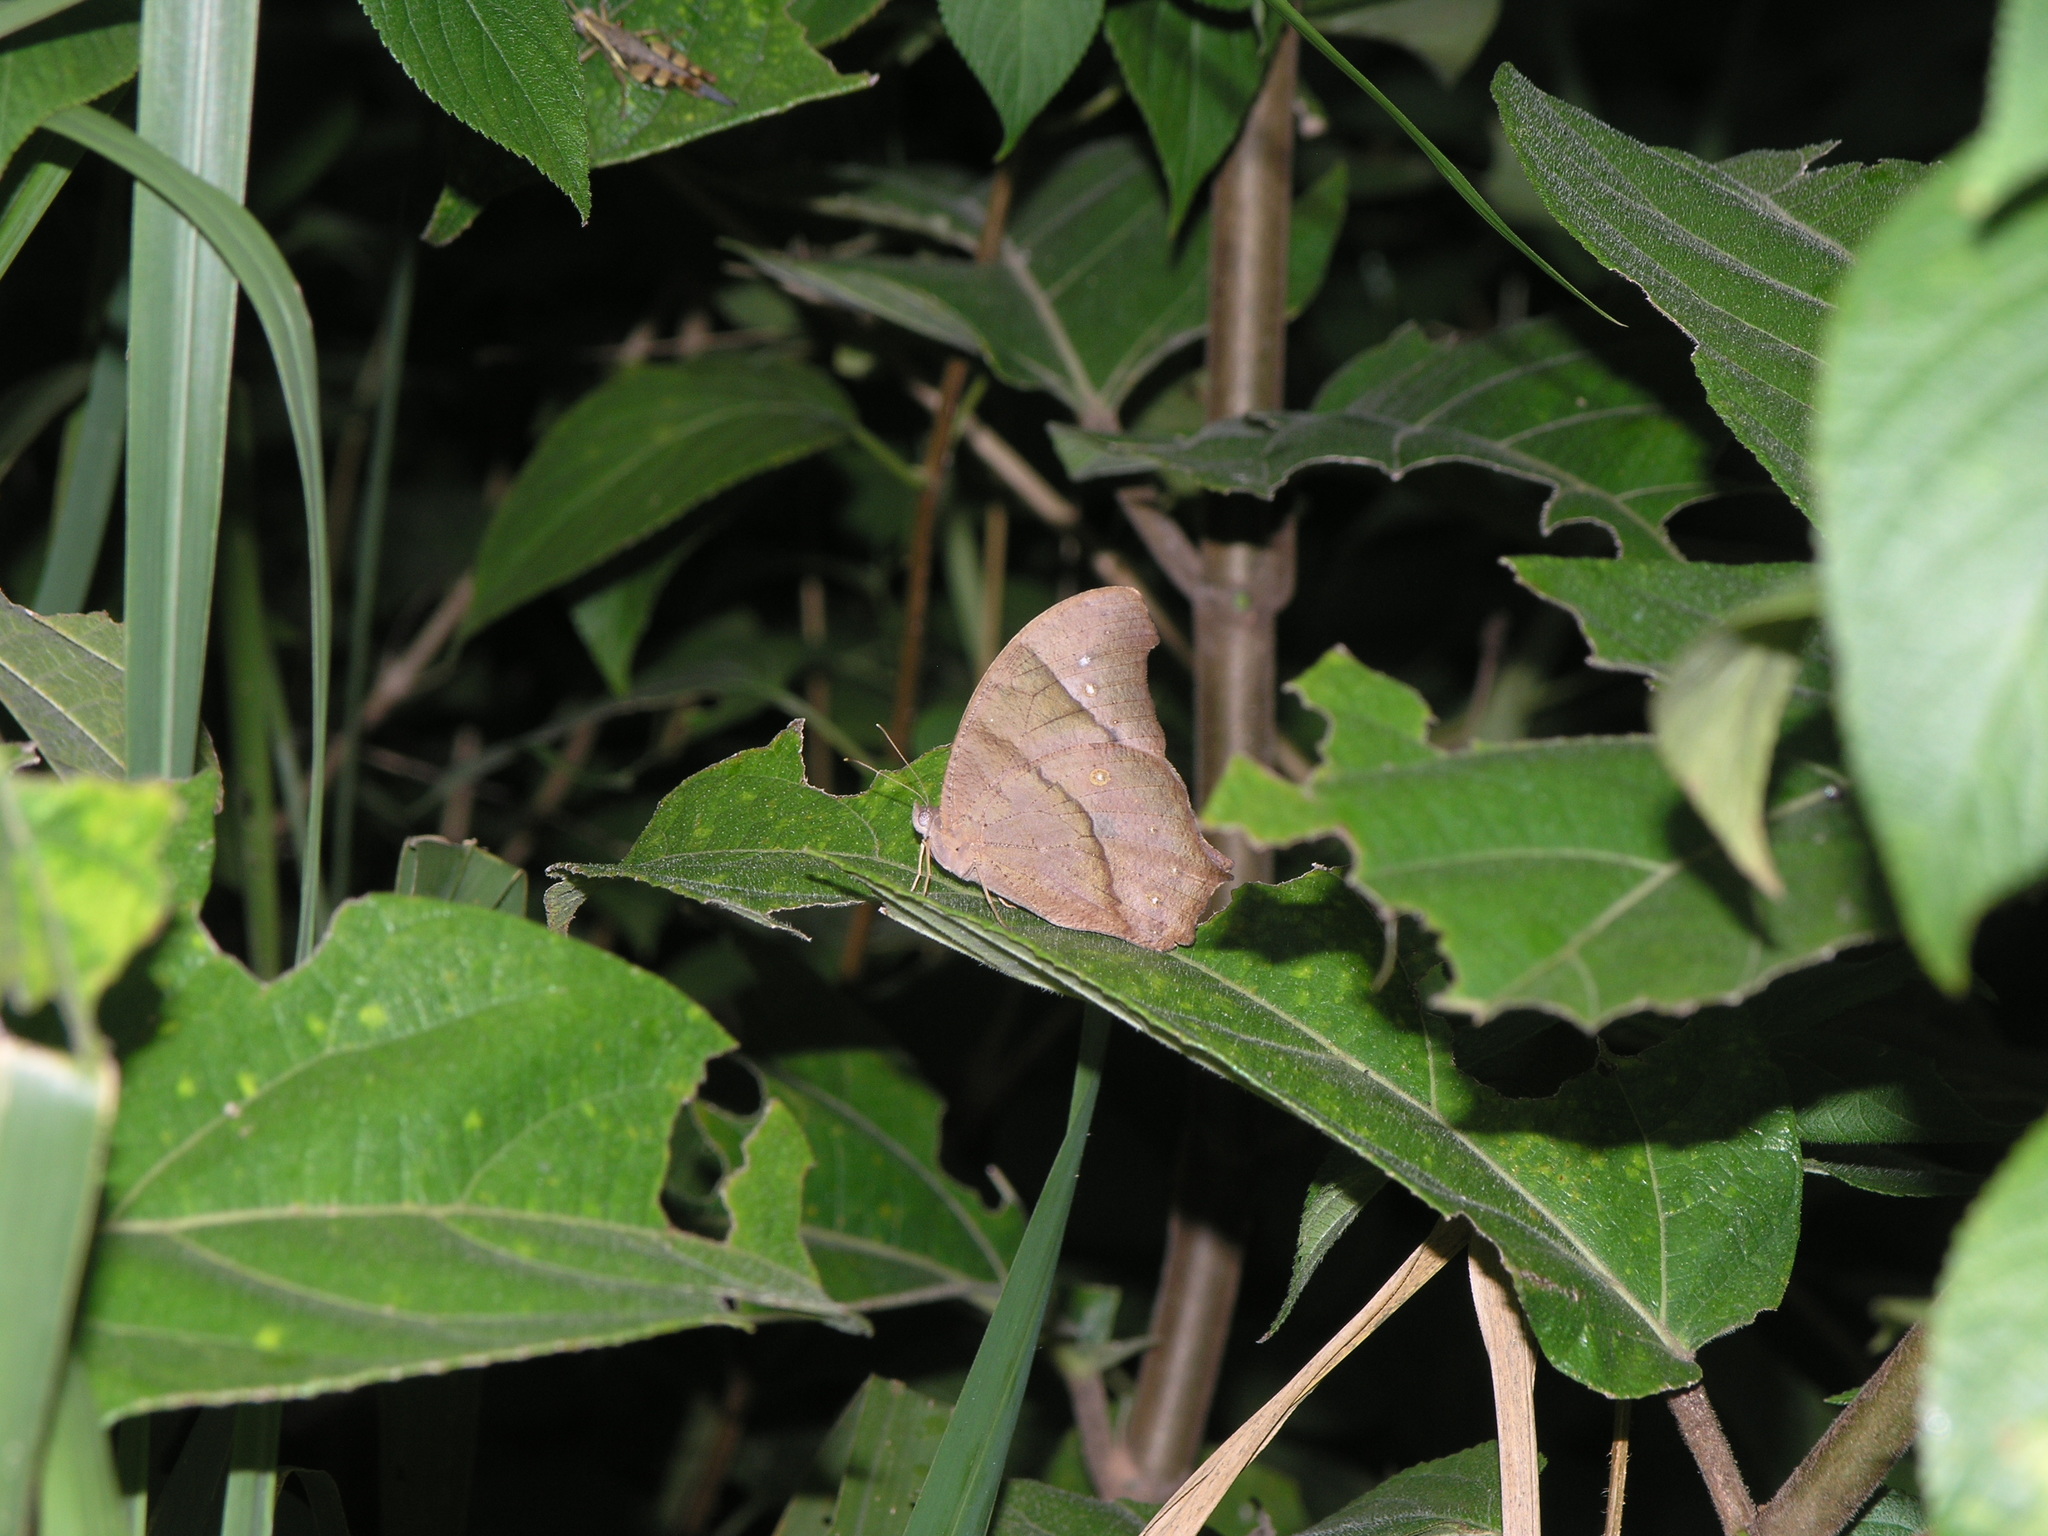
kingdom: Animalia
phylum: Arthropoda
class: Insecta
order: Lepidoptera
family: Nymphalidae
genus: Melanitis
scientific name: Melanitis leda
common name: Twilight brown
